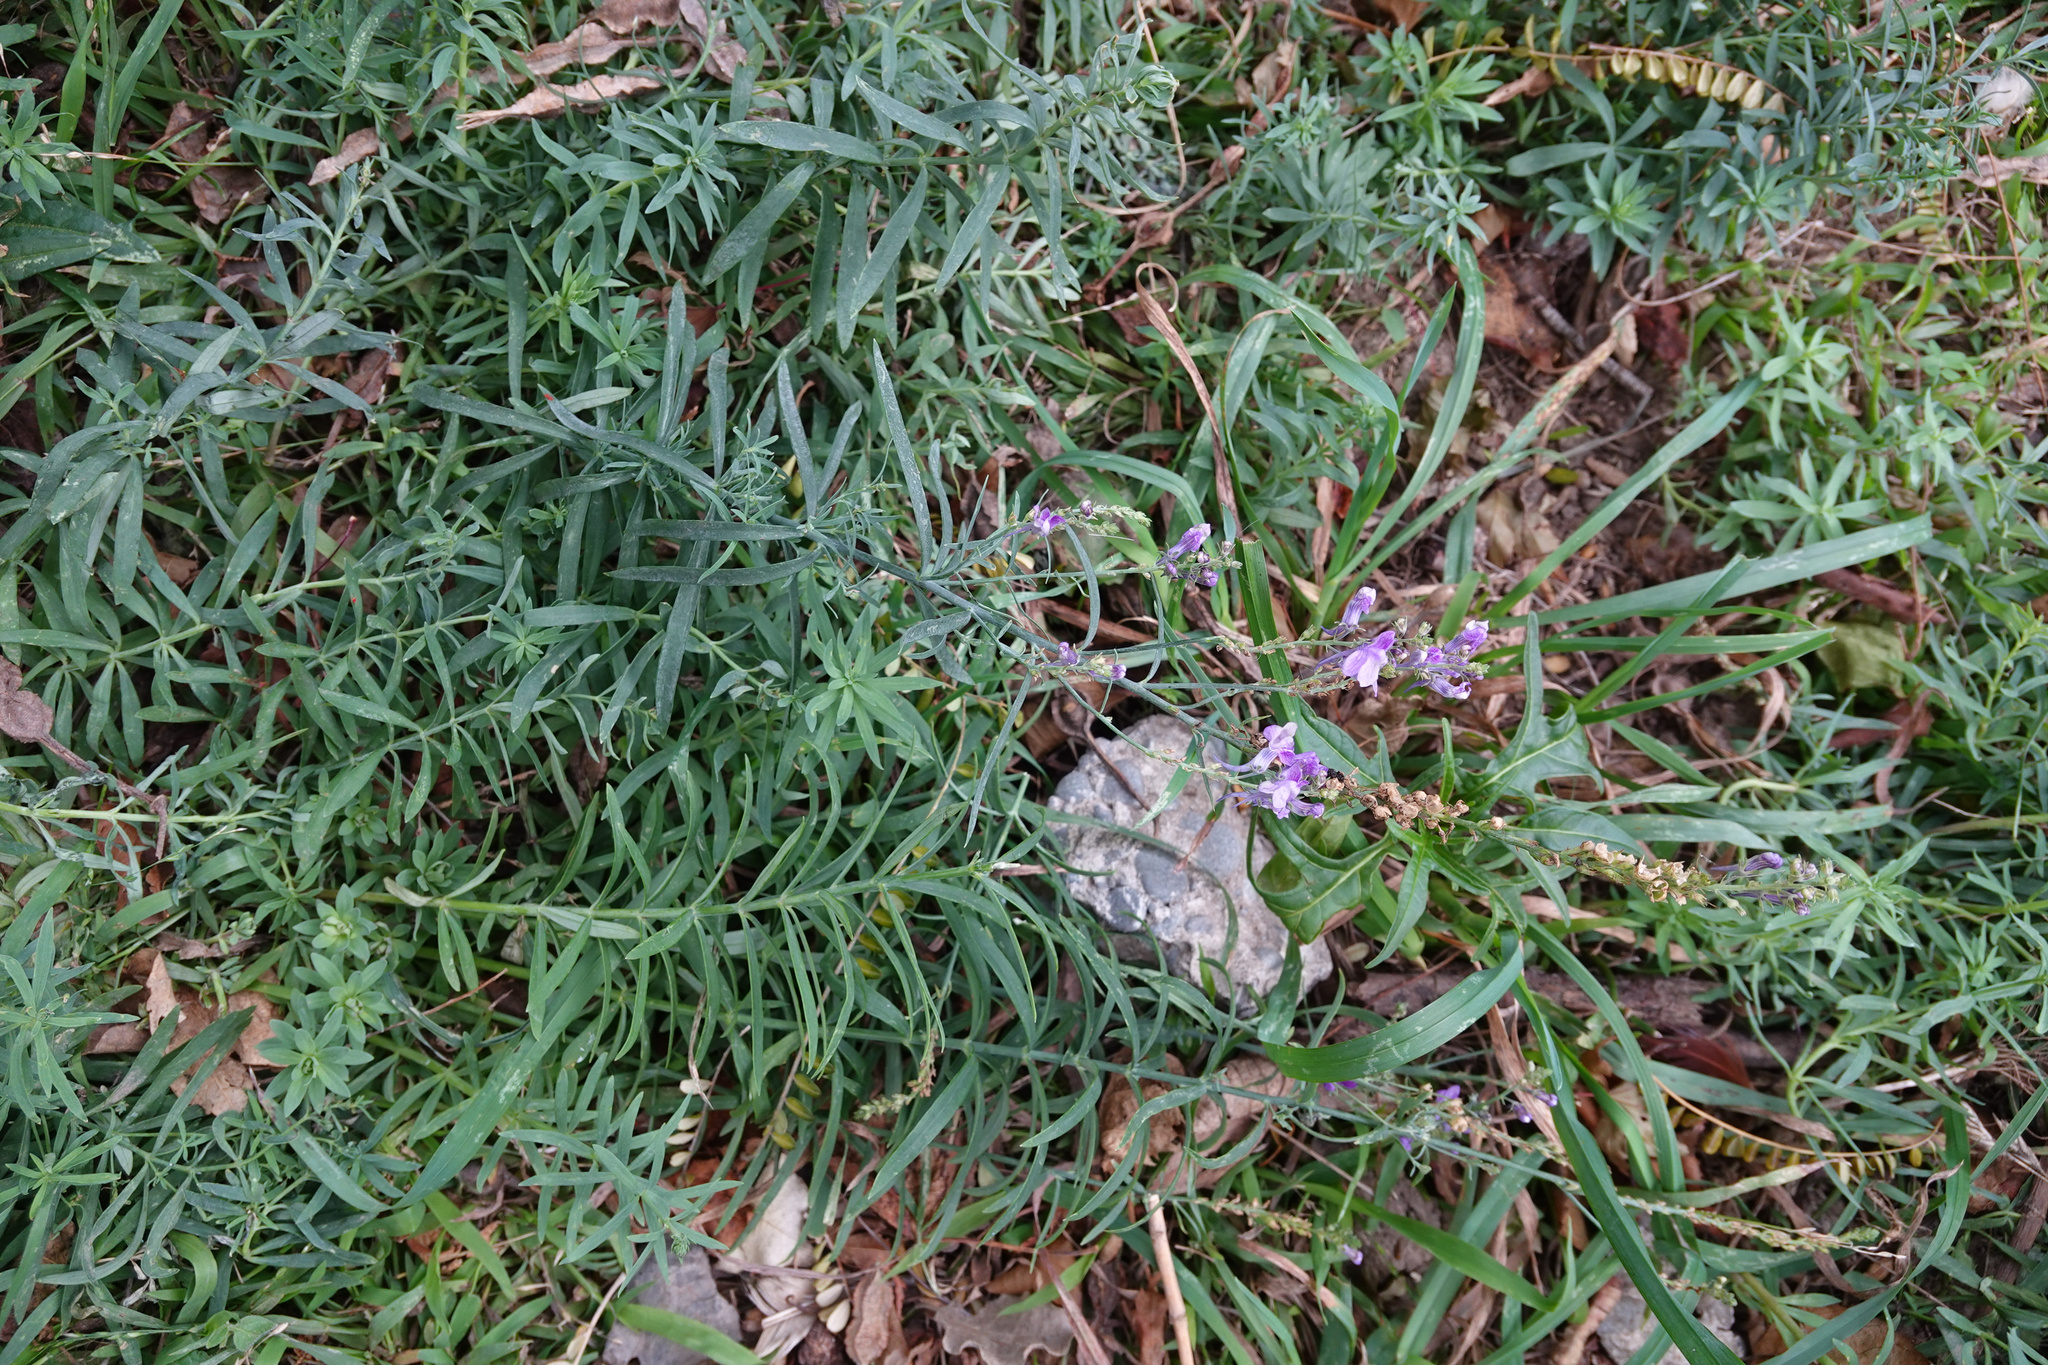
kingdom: Plantae
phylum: Tracheophyta
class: Magnoliopsida
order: Lamiales
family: Plantaginaceae
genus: Linaria
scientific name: Linaria purpurea
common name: Purple toadflax
